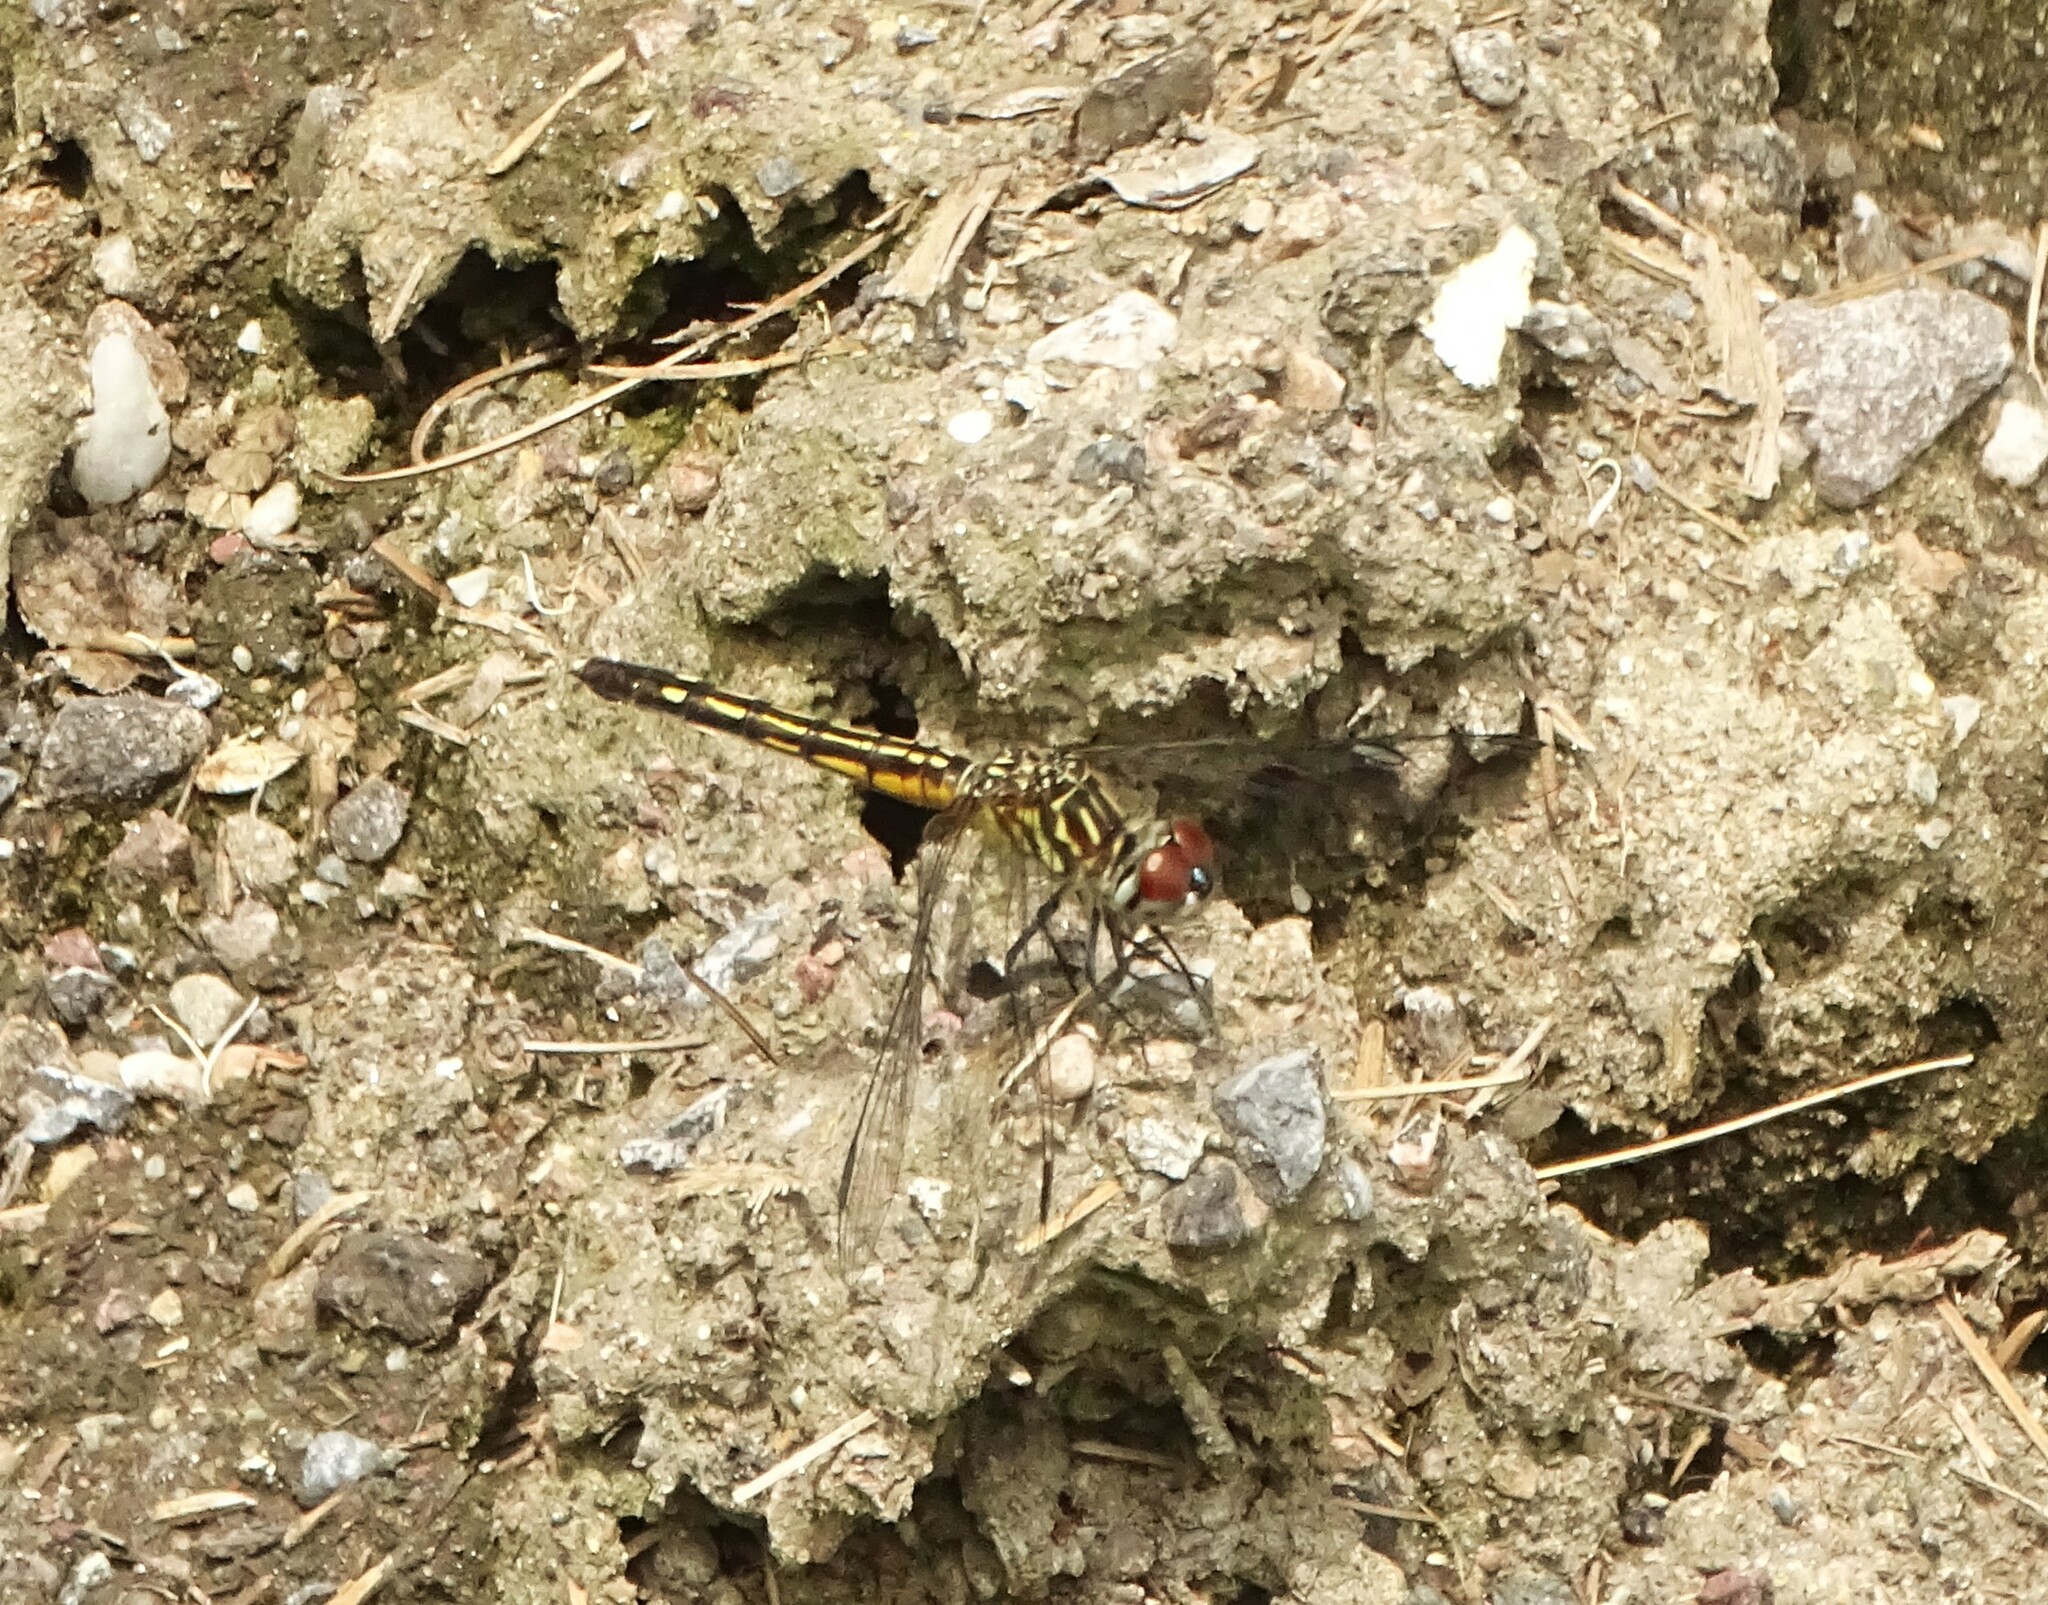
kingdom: Animalia
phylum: Arthropoda
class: Insecta
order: Odonata
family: Libellulidae
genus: Pachydiplax
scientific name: Pachydiplax longipennis
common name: Blue dasher
